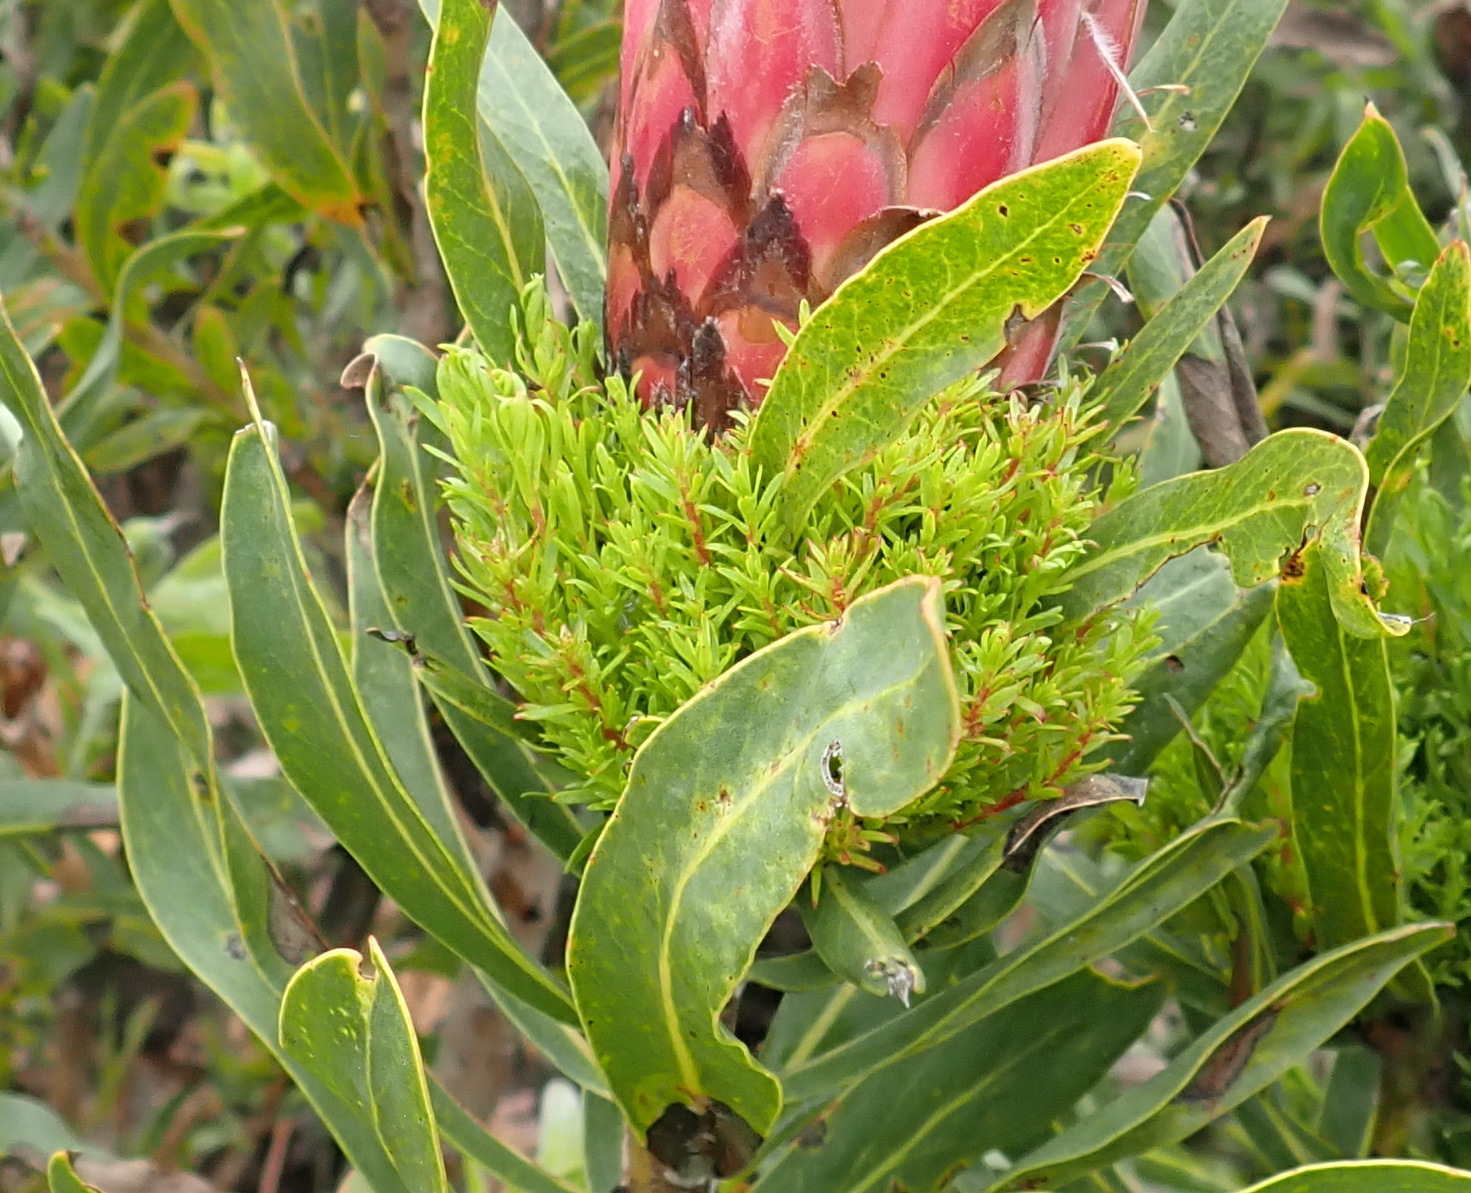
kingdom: Bacteria
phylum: Firmicutes
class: Bacilli
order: Acholeplasmatales
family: Acholeplasmataceae
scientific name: Acholeplasmataceae
